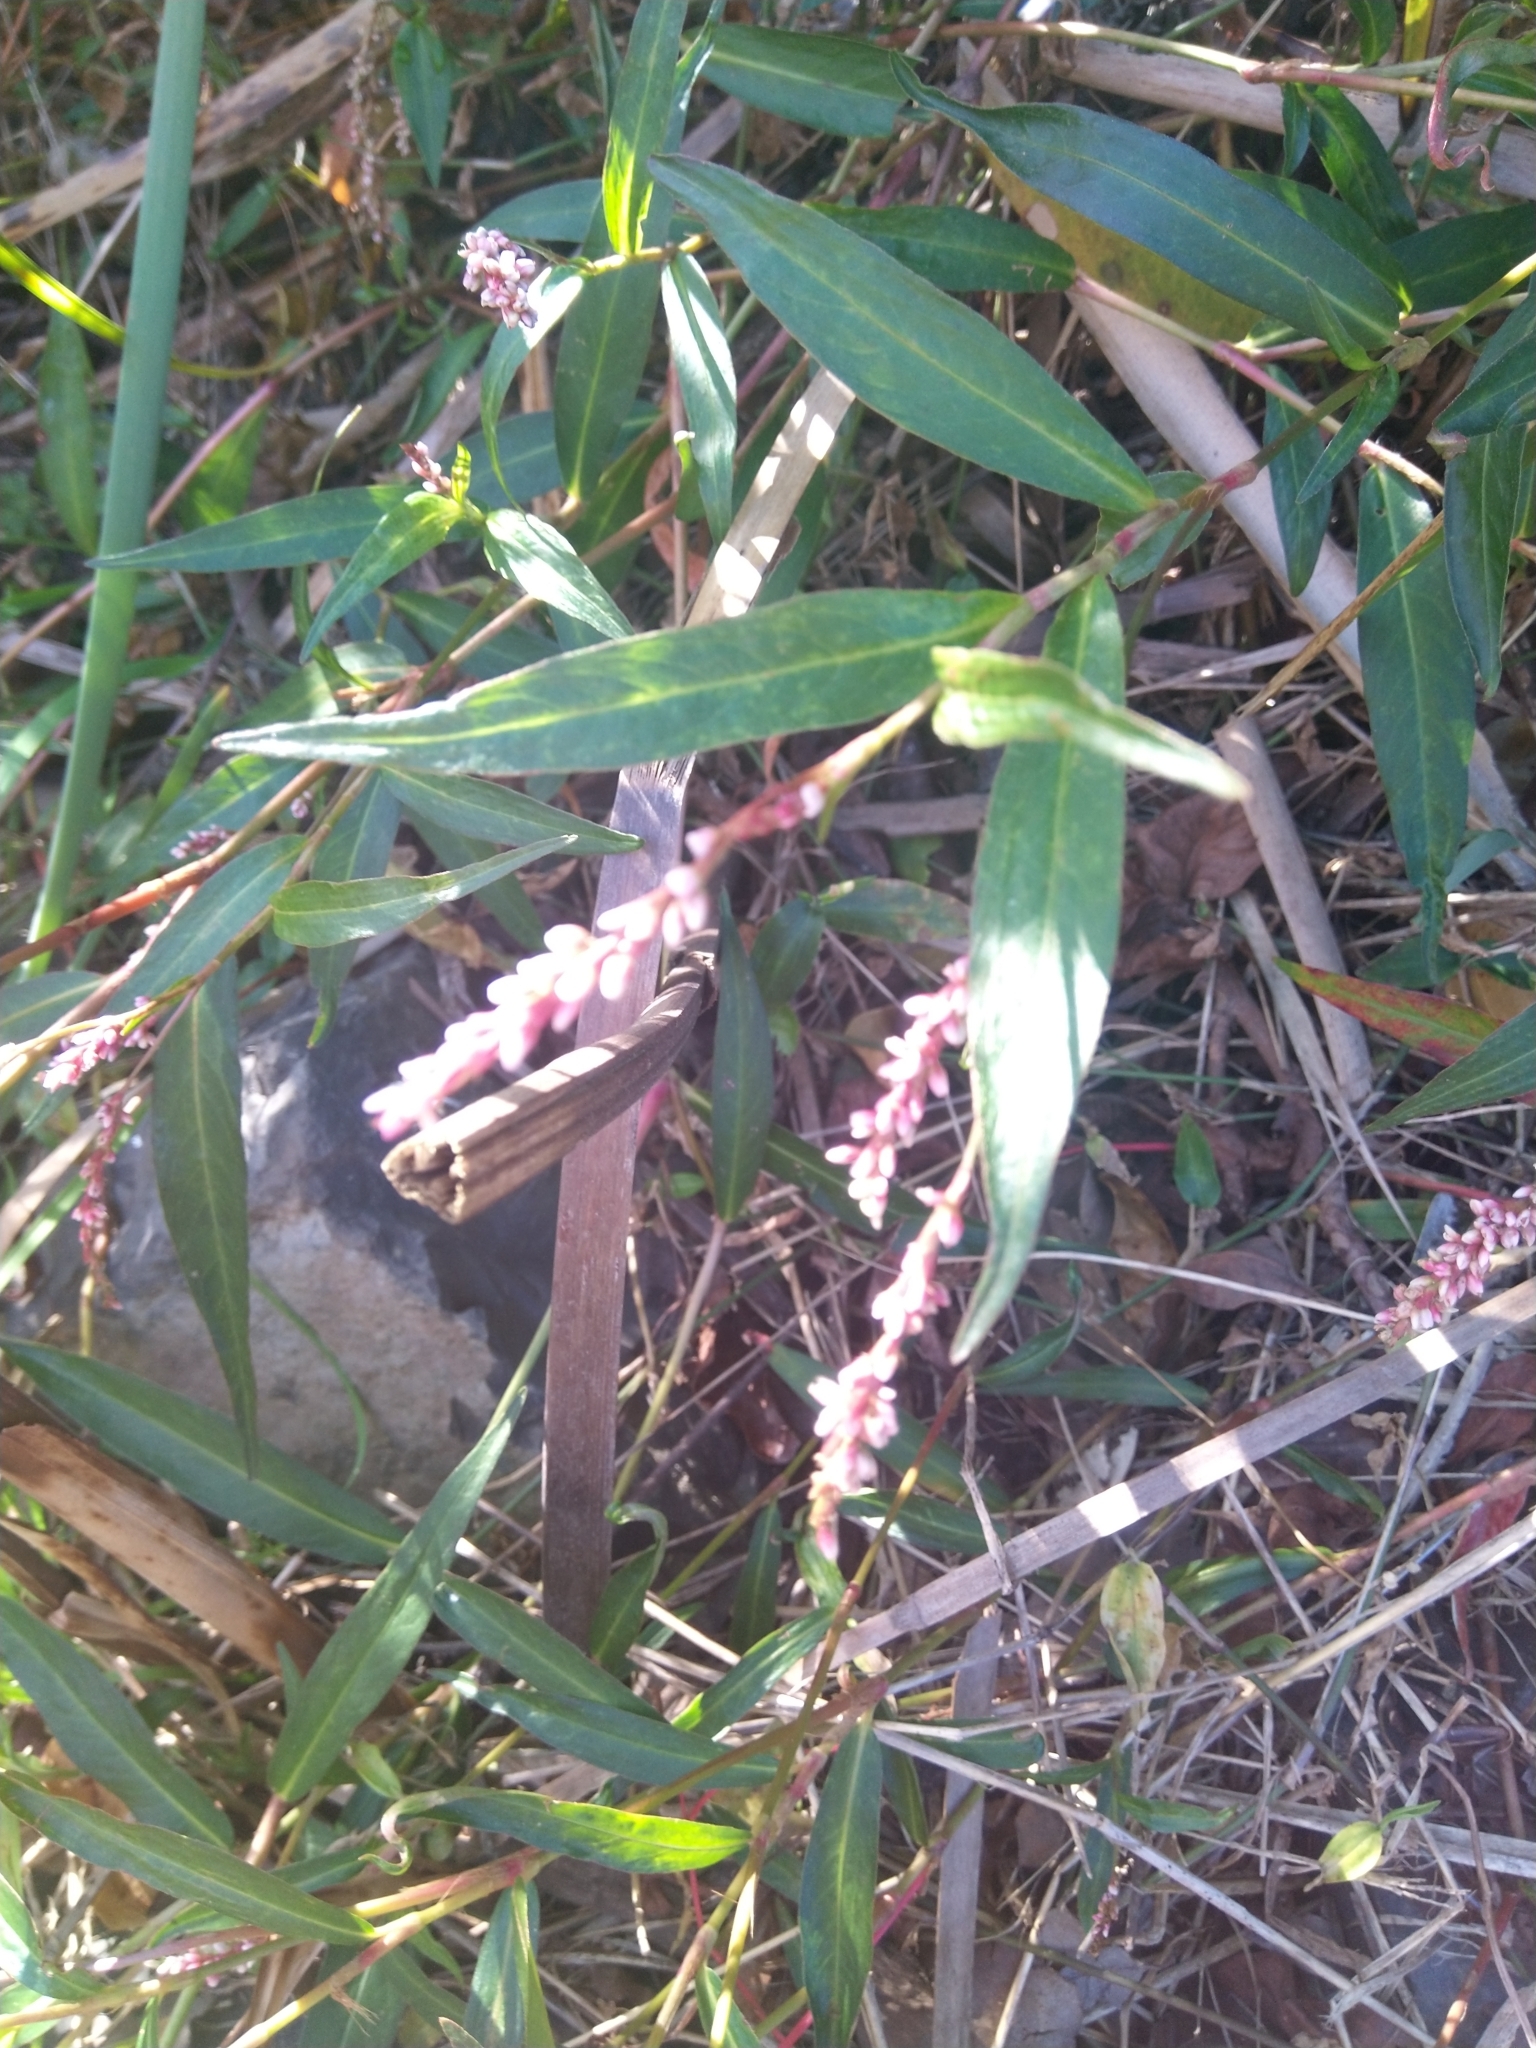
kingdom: Plantae
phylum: Tracheophyta
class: Magnoliopsida
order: Caryophyllales
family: Polygonaceae
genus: Persicaria
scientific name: Persicaria decipiens
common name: Willow-weed
